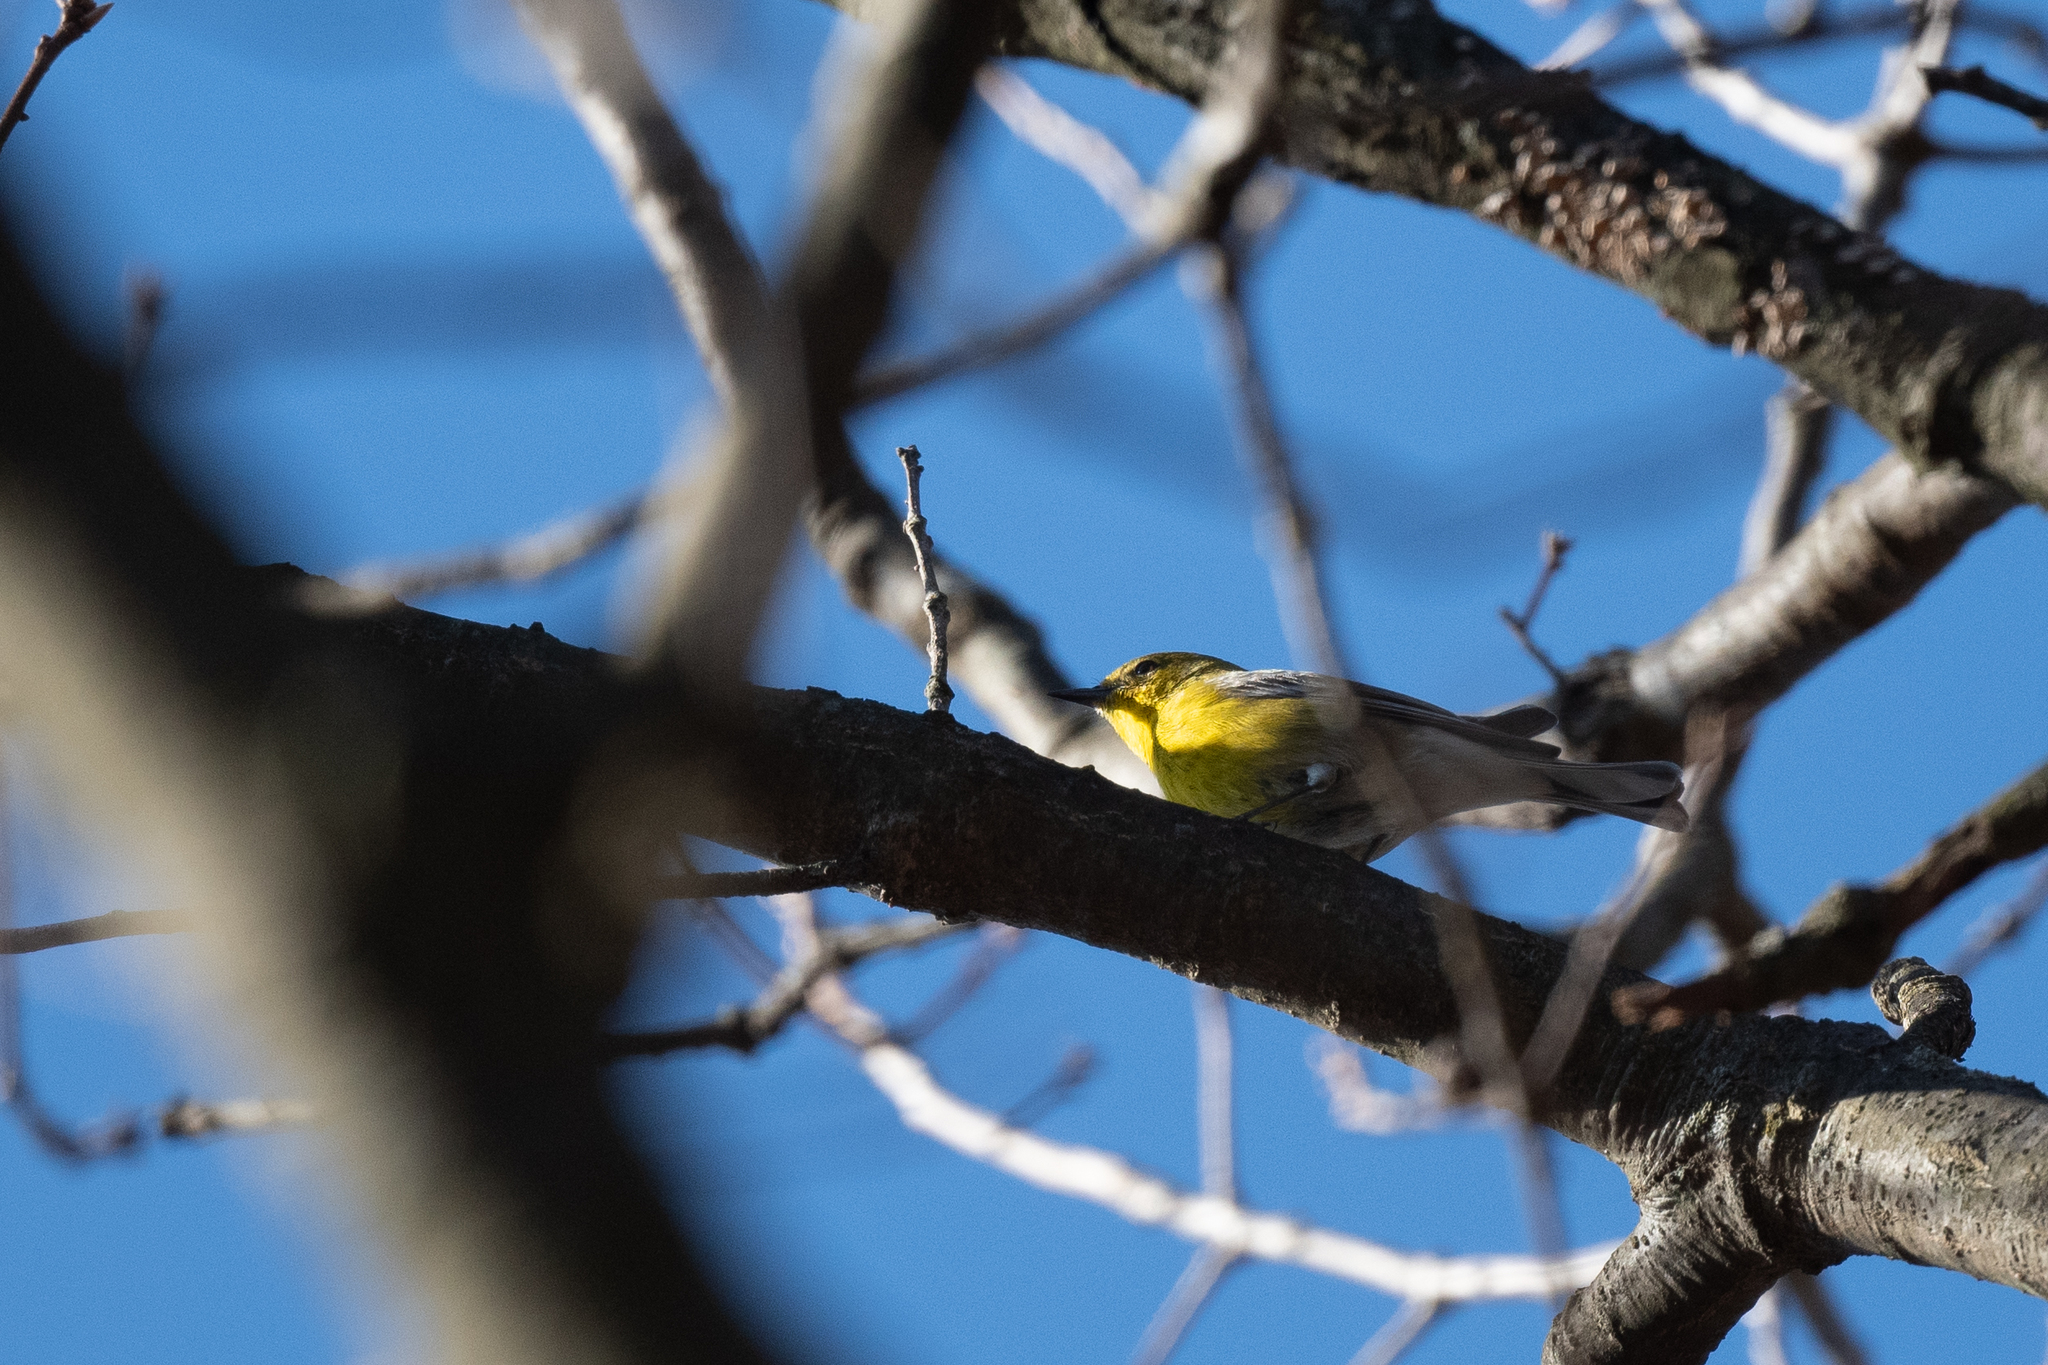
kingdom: Animalia
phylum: Chordata
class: Aves
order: Passeriformes
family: Parulidae
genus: Setophaga
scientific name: Setophaga pinus
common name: Pine warbler
